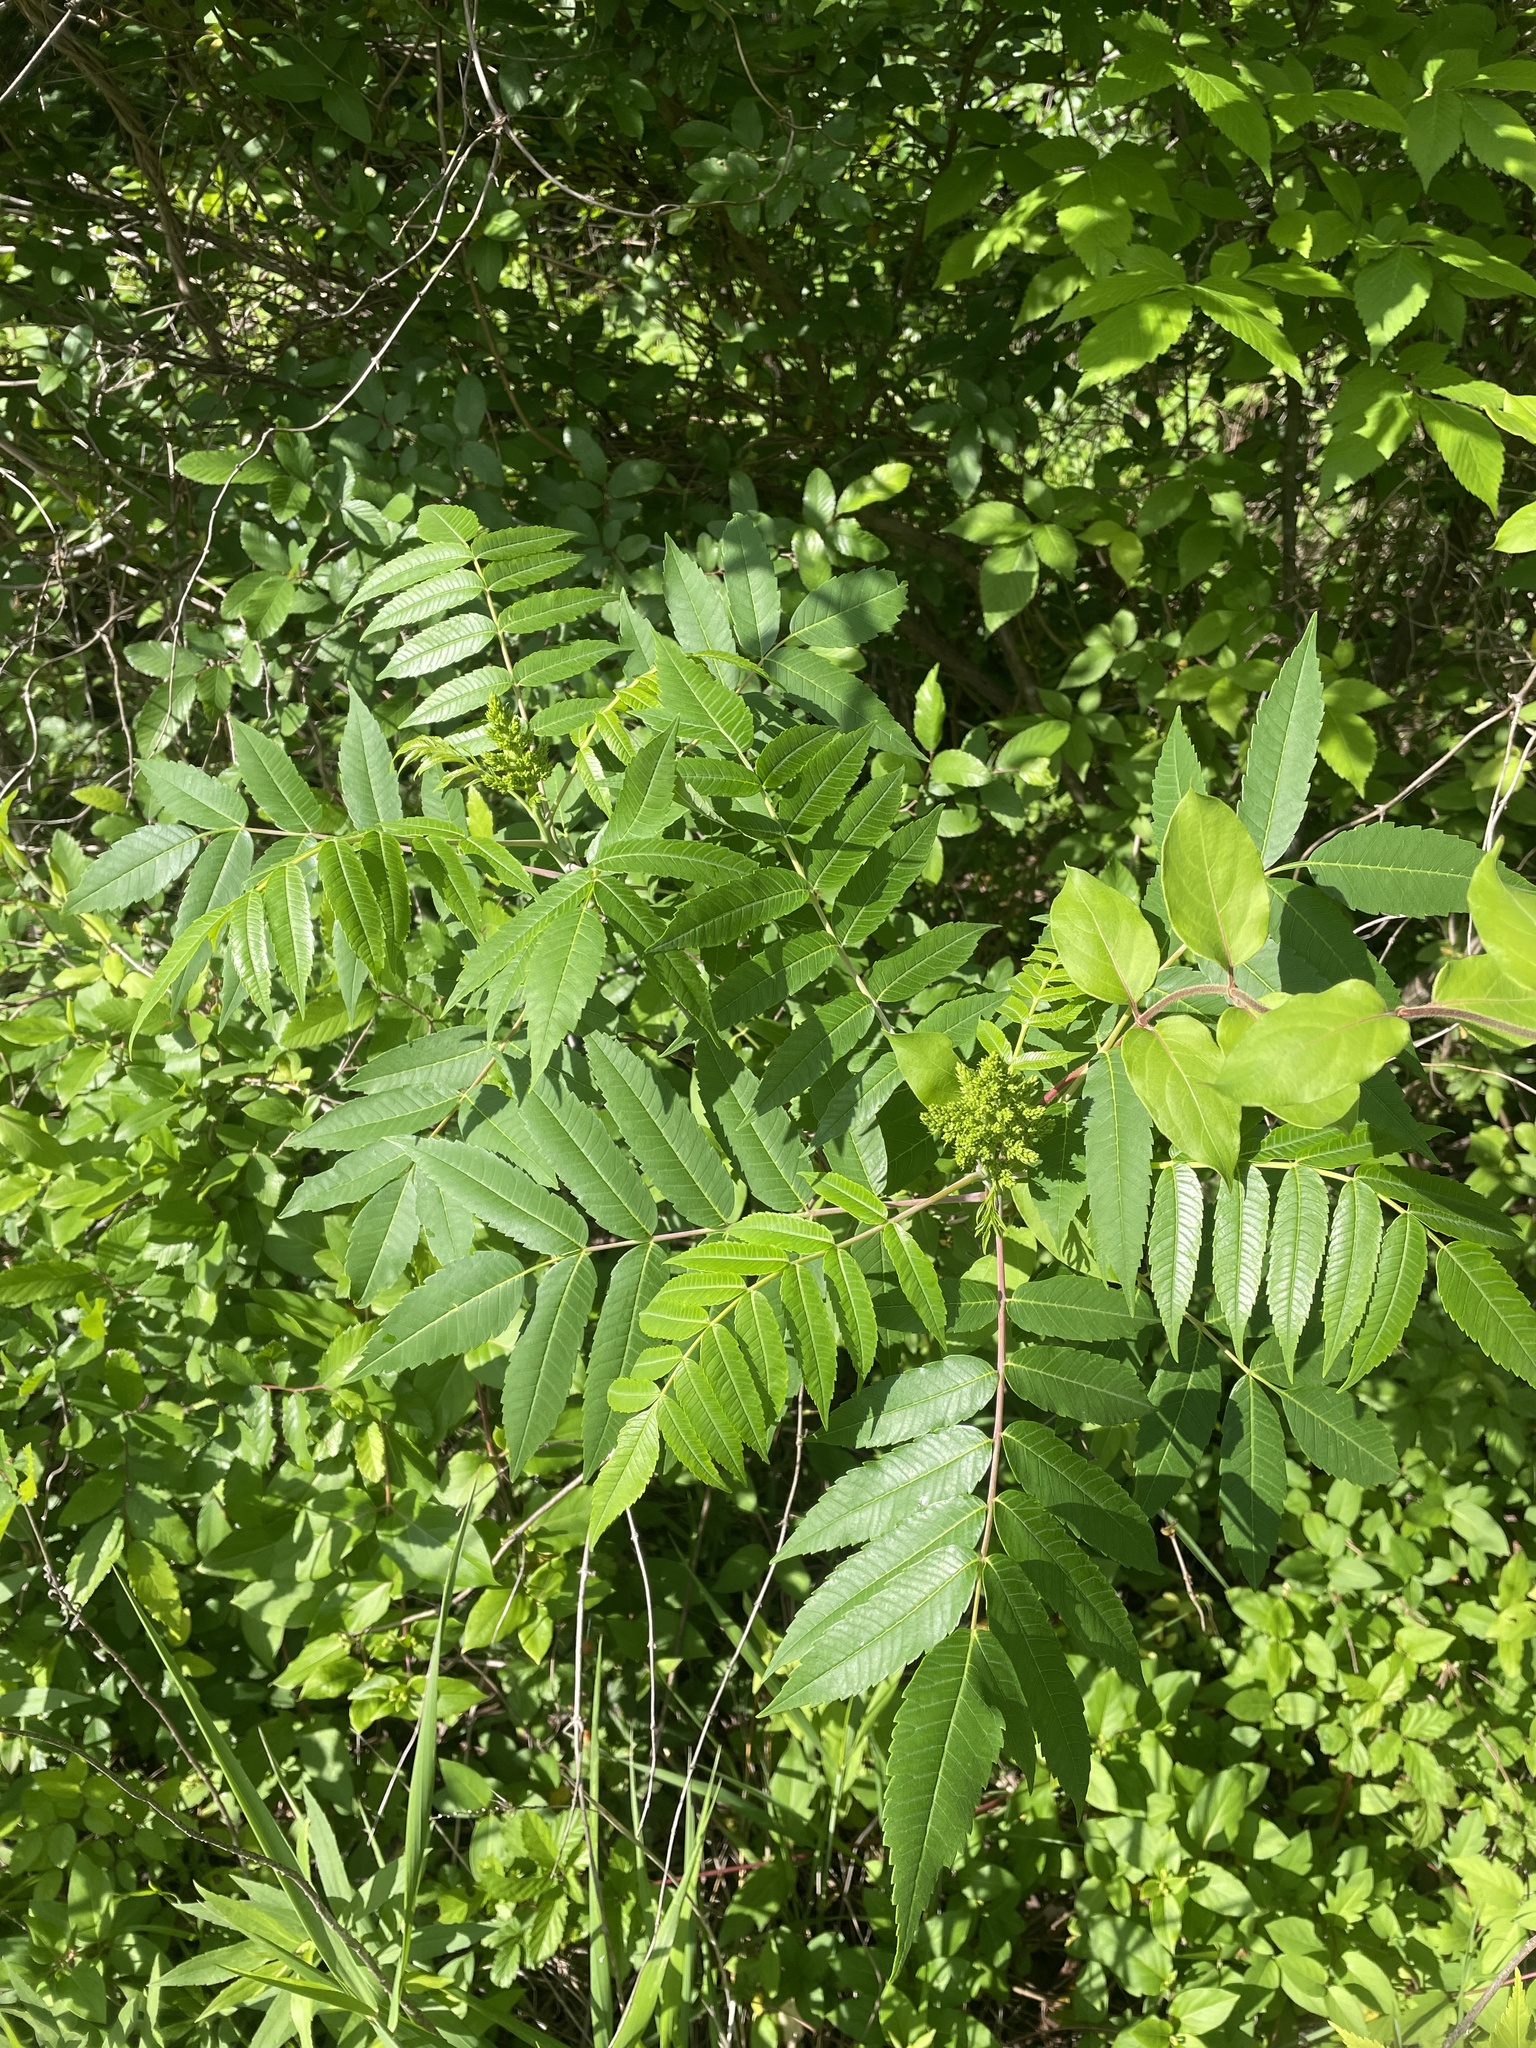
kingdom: Plantae
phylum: Tracheophyta
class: Magnoliopsida
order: Sapindales
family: Anacardiaceae
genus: Rhus
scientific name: Rhus glabra
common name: Scarlet sumac
